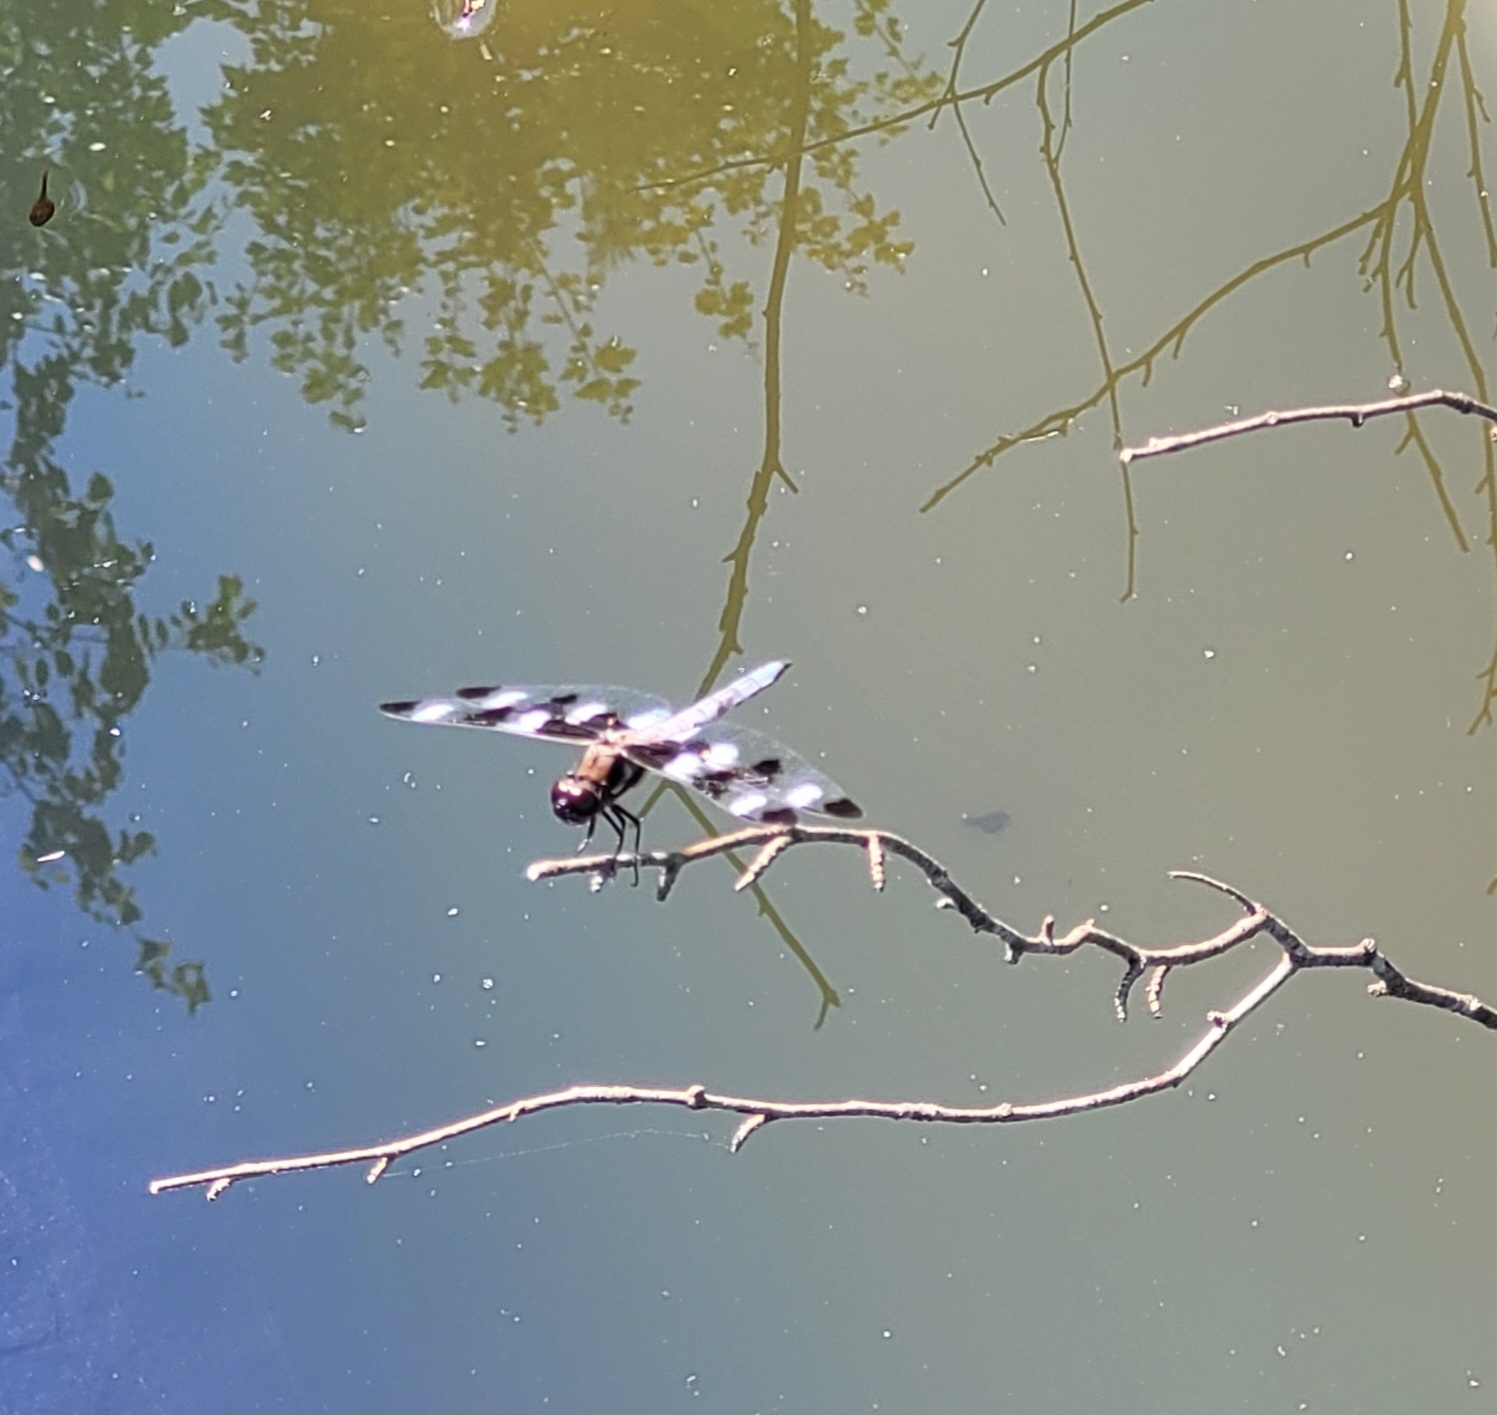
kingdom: Animalia
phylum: Arthropoda
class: Insecta
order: Odonata
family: Libellulidae
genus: Libellula
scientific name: Libellula pulchella
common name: Twelve-spotted skimmer
